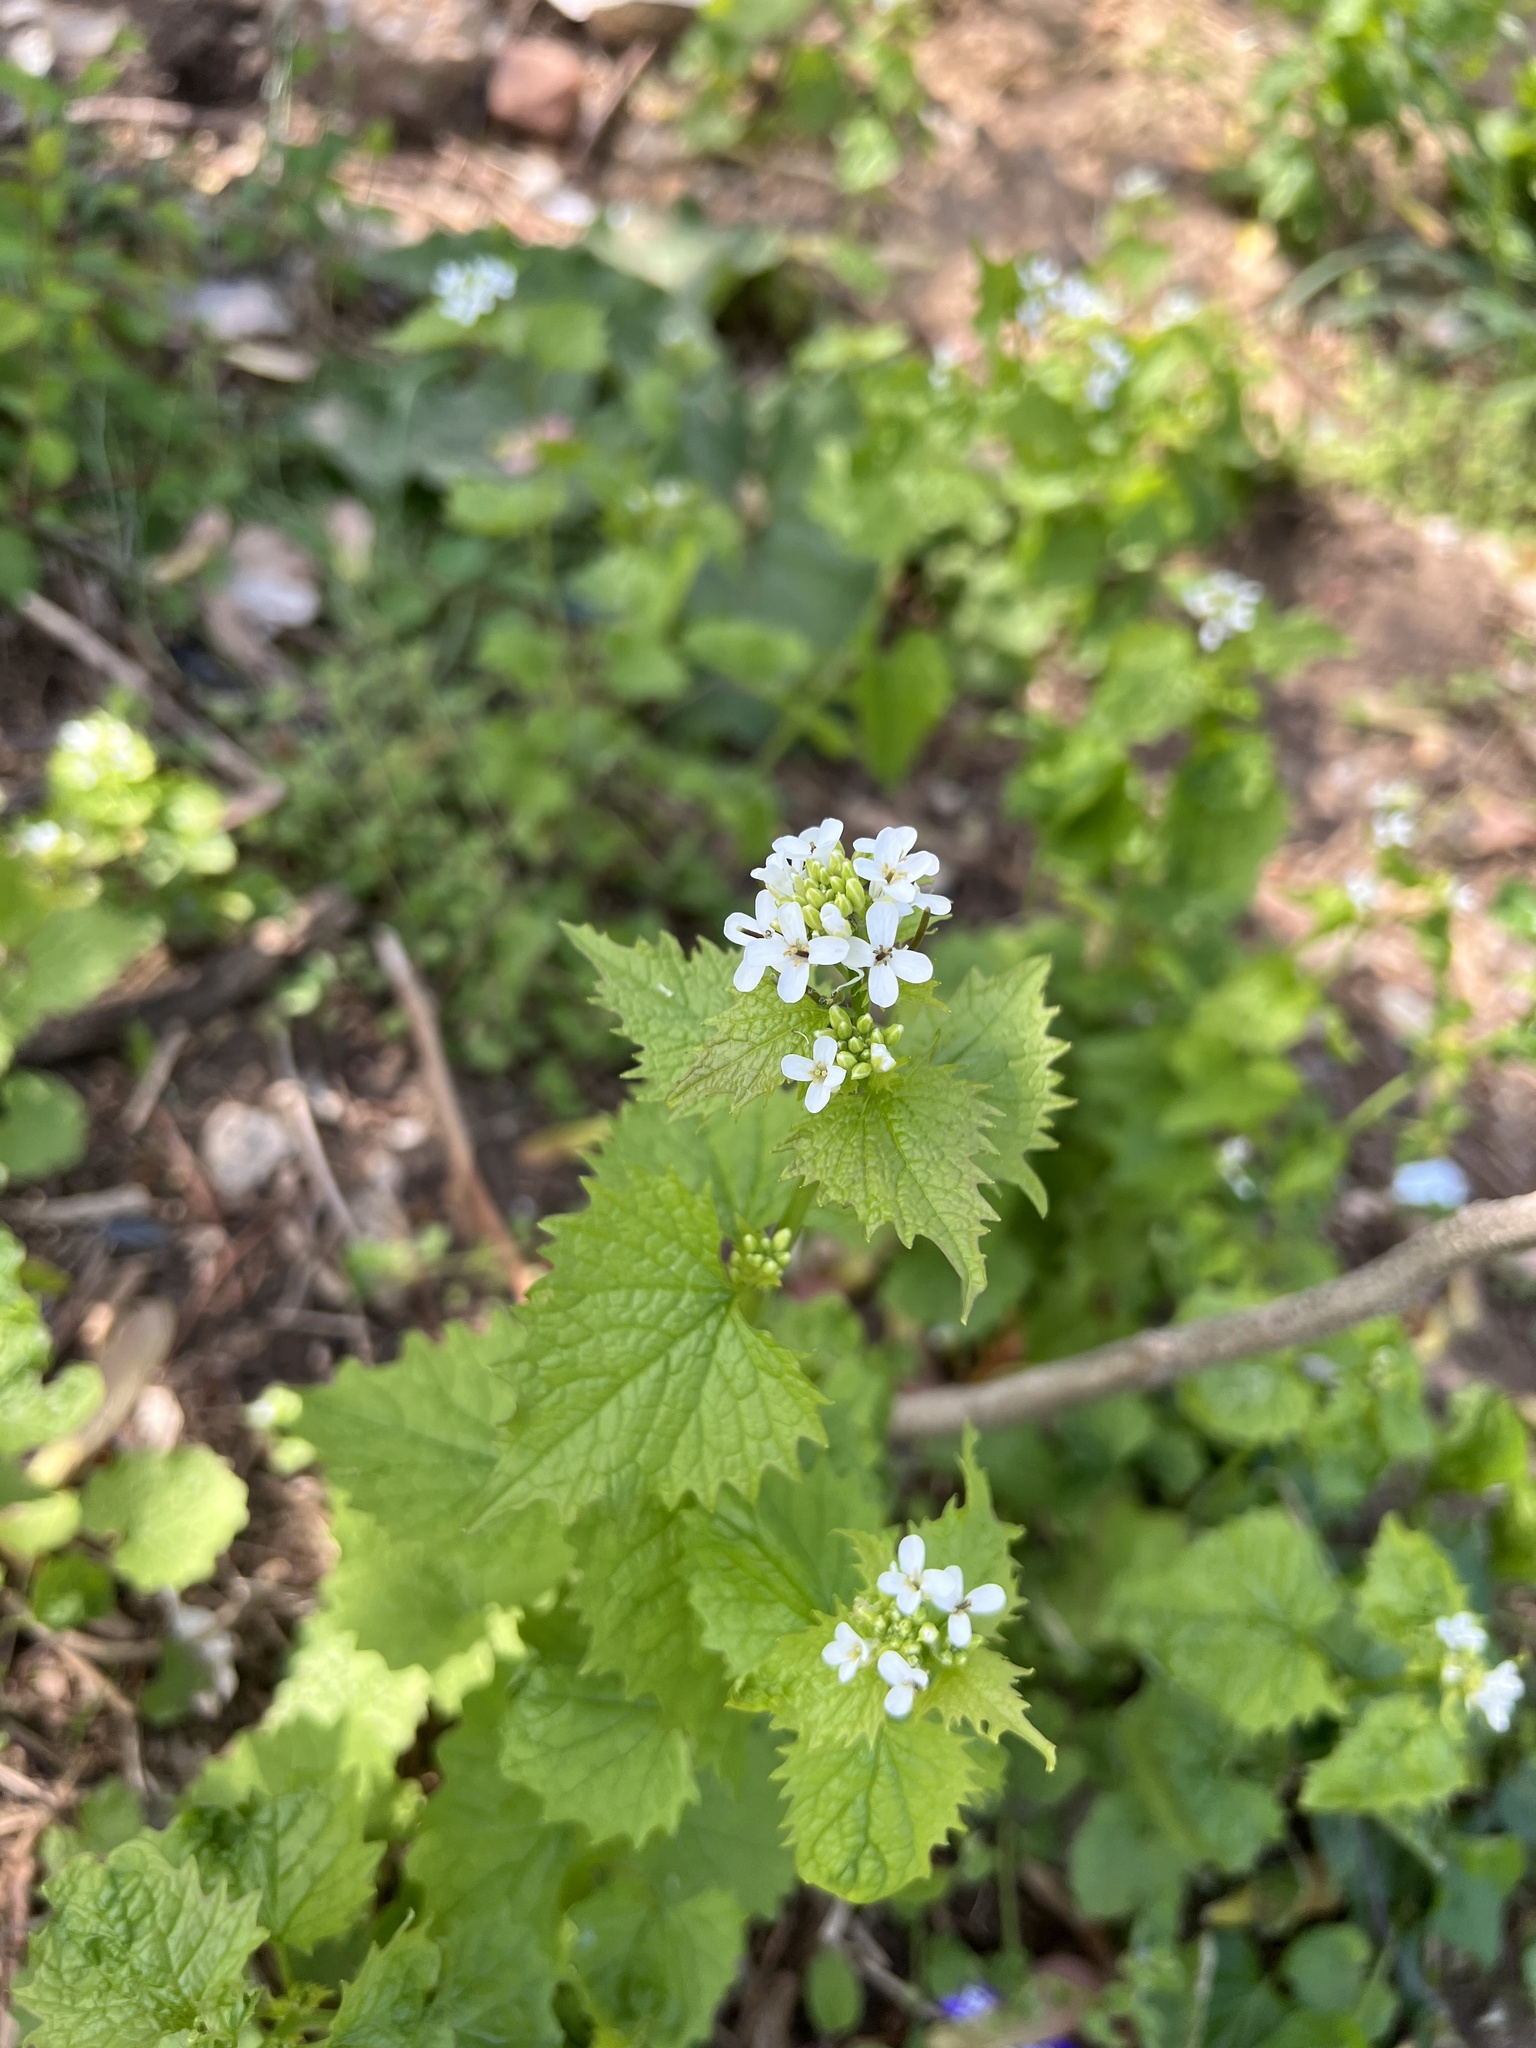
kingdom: Plantae
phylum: Tracheophyta
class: Magnoliopsida
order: Brassicales
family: Brassicaceae
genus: Alliaria
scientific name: Alliaria petiolata
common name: Garlic mustard
